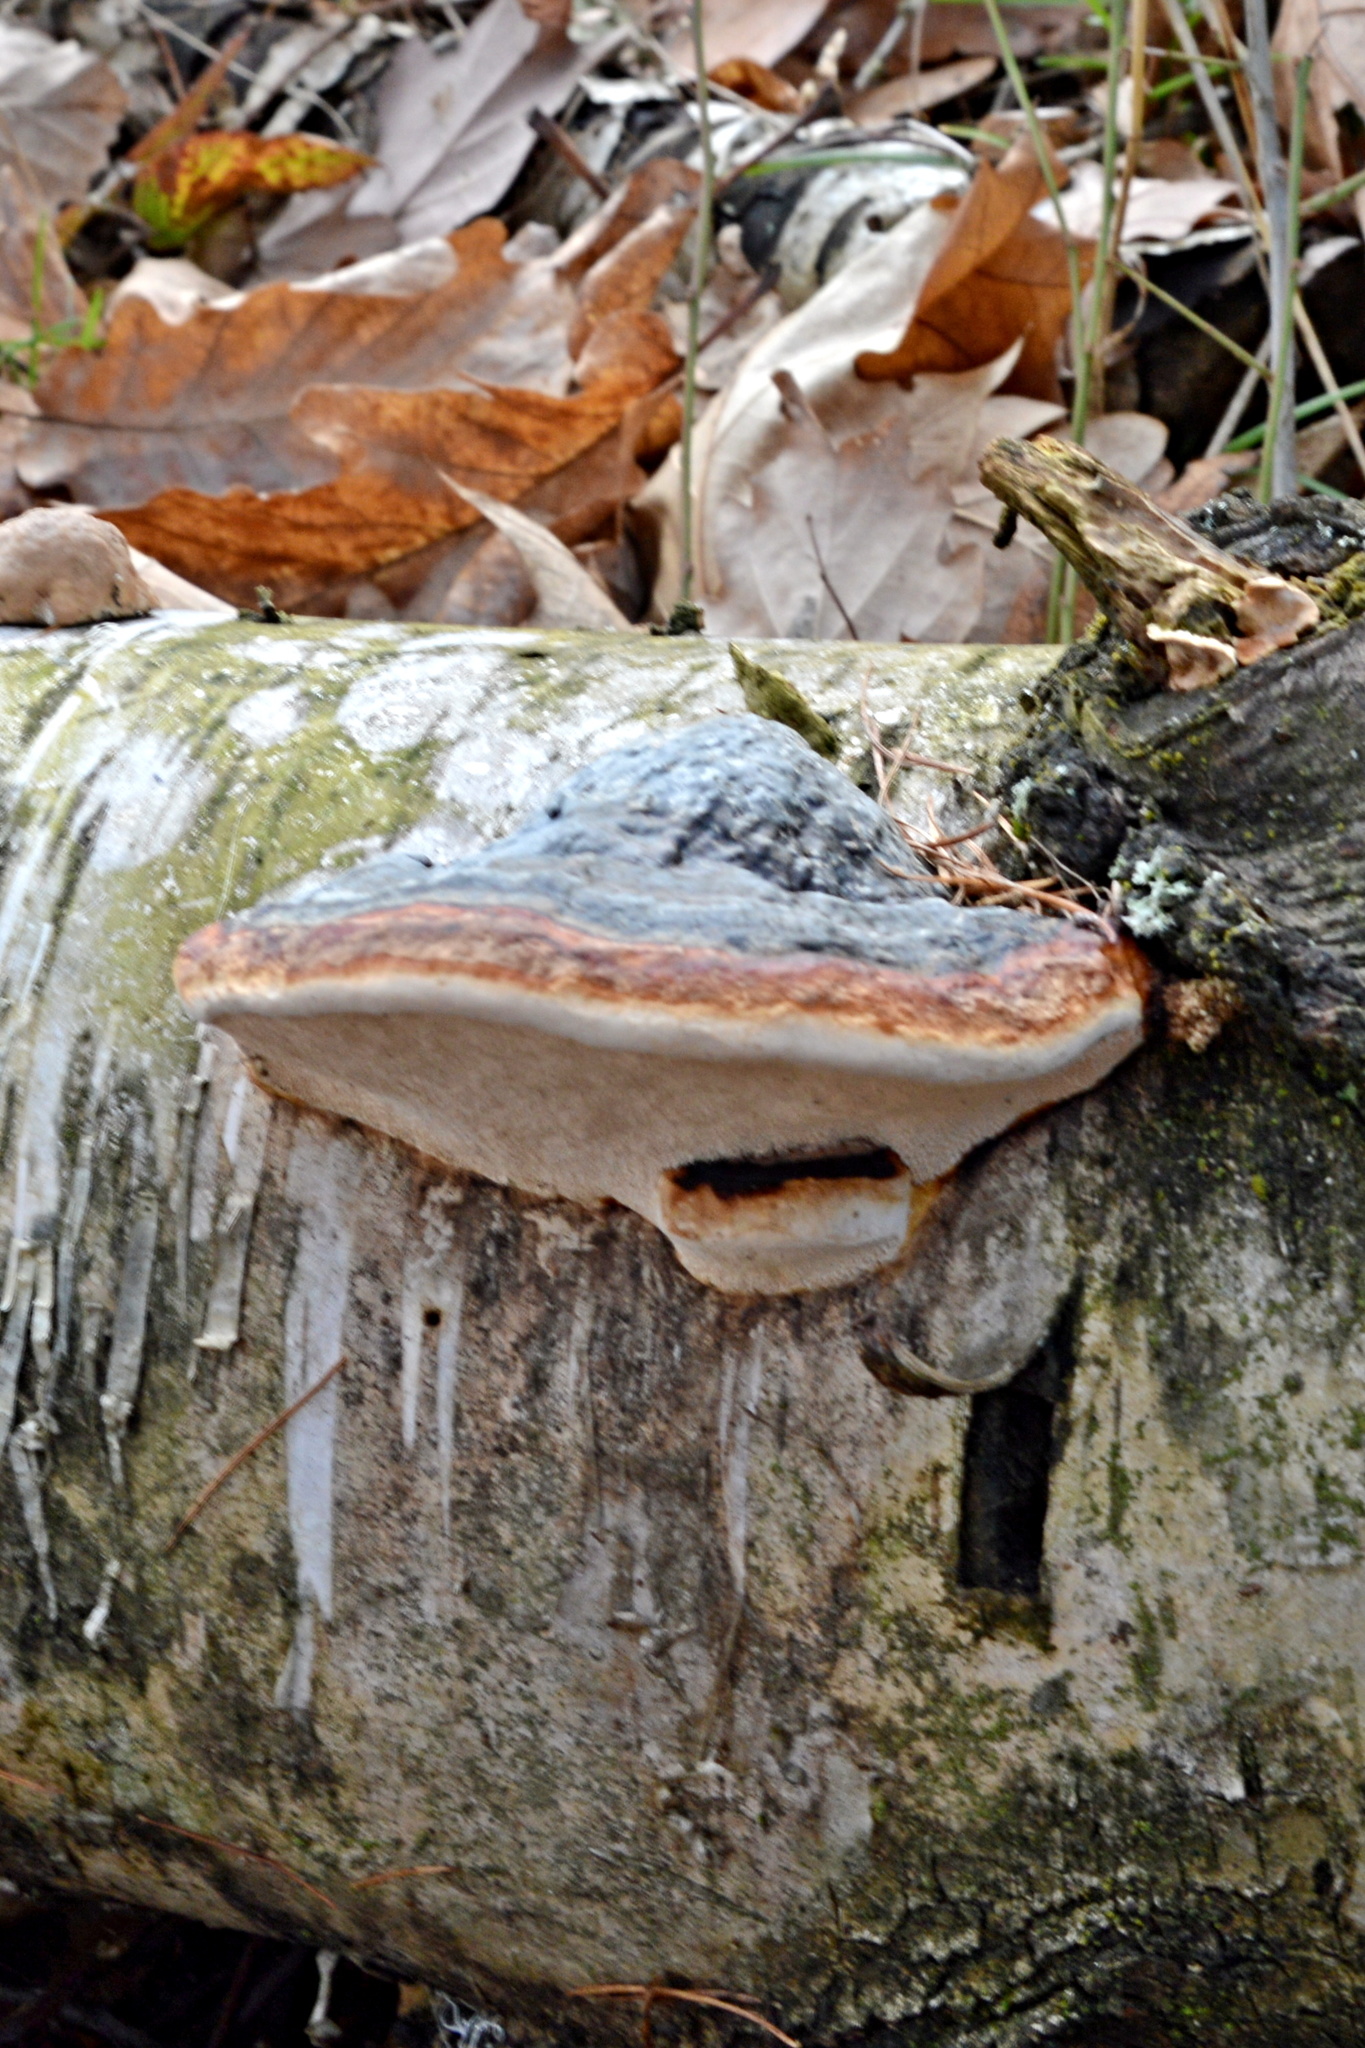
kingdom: Fungi
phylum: Basidiomycota
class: Agaricomycetes
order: Polyporales
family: Fomitopsidaceae
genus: Fomitopsis
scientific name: Fomitopsis pinicola
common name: Red-belted bracket
